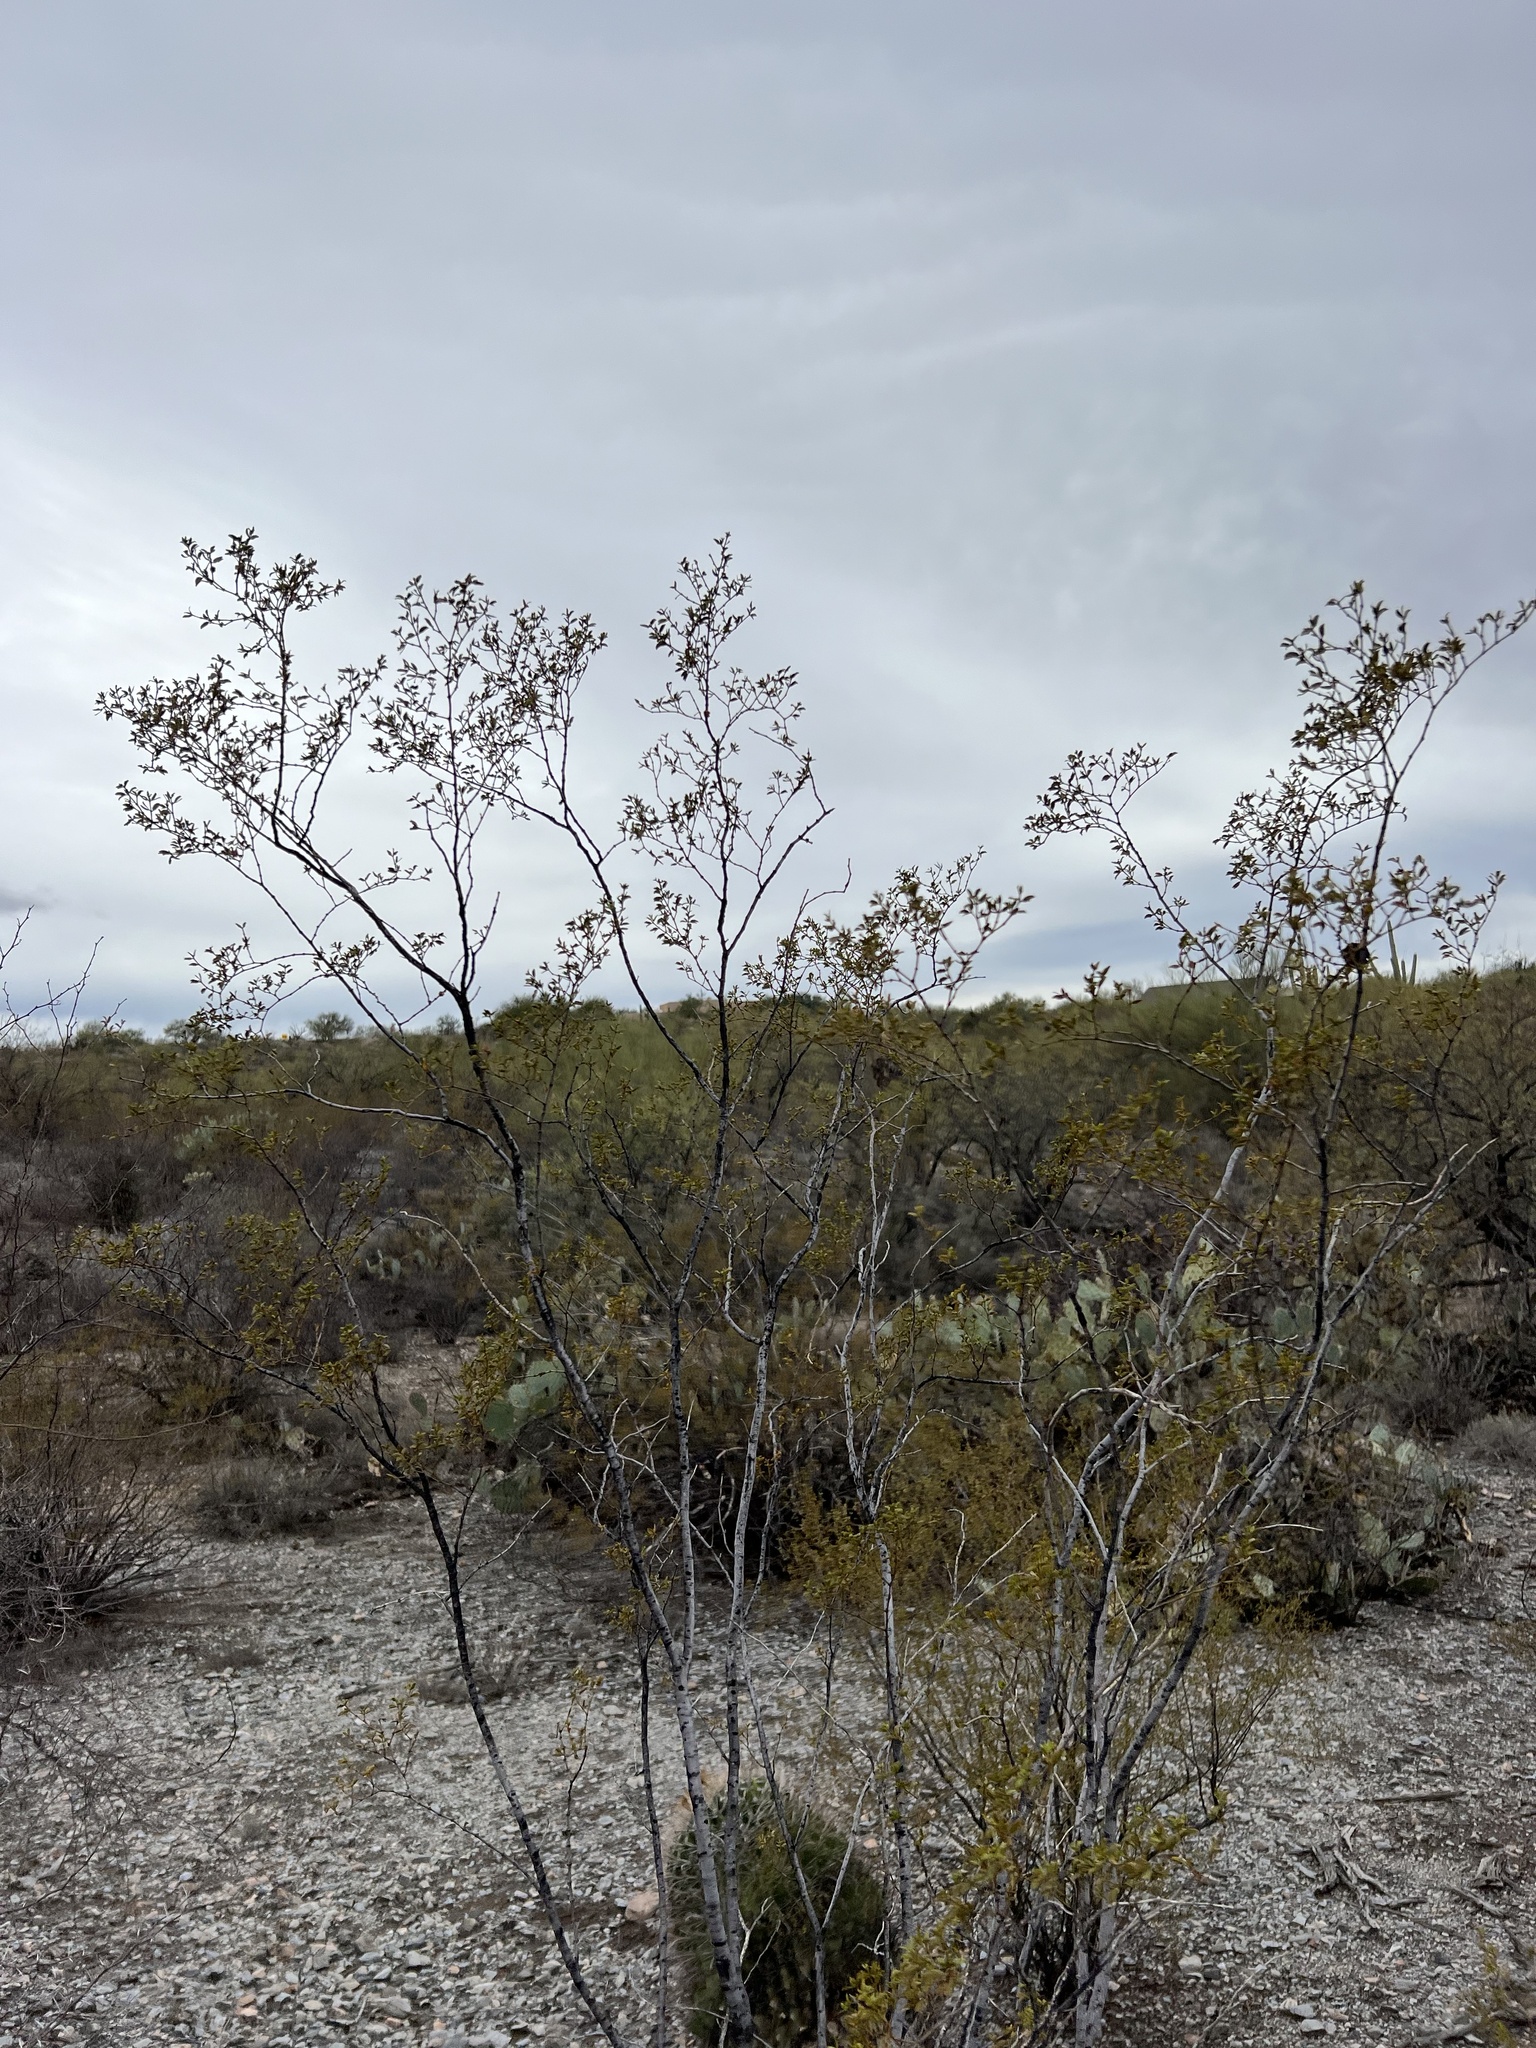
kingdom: Plantae
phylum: Tracheophyta
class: Magnoliopsida
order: Zygophyllales
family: Zygophyllaceae
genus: Larrea
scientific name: Larrea tridentata
